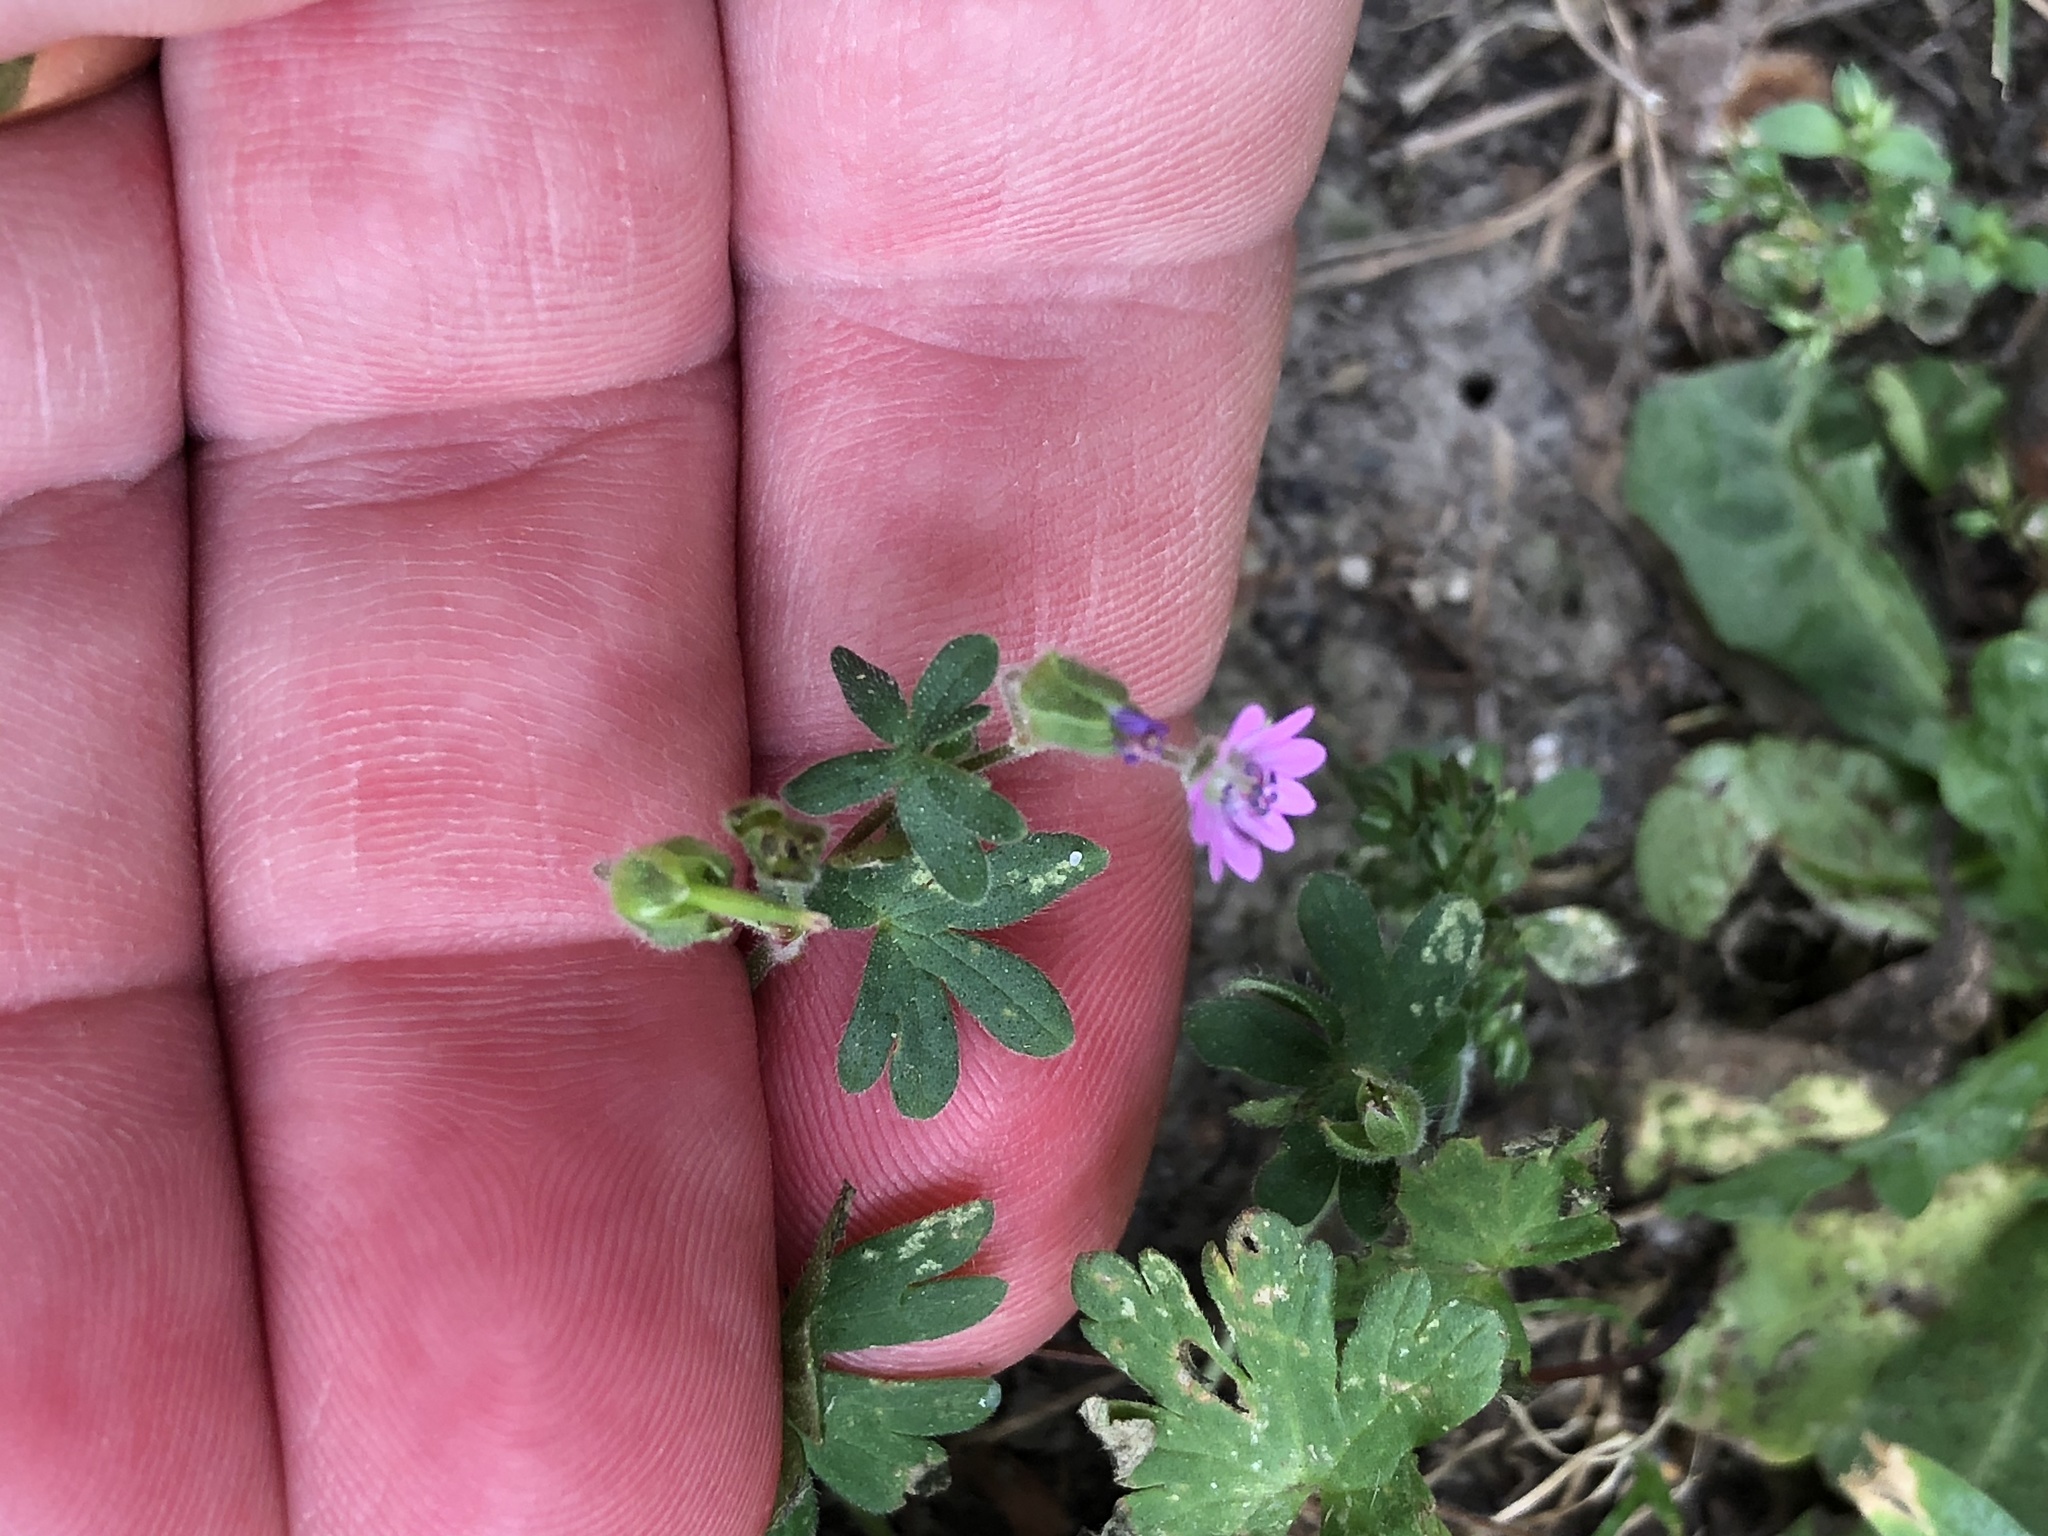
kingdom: Plantae
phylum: Tracheophyta
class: Magnoliopsida
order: Geraniales
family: Geraniaceae
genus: Geranium
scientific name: Geranium molle
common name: Dove's-foot crane's-bill
